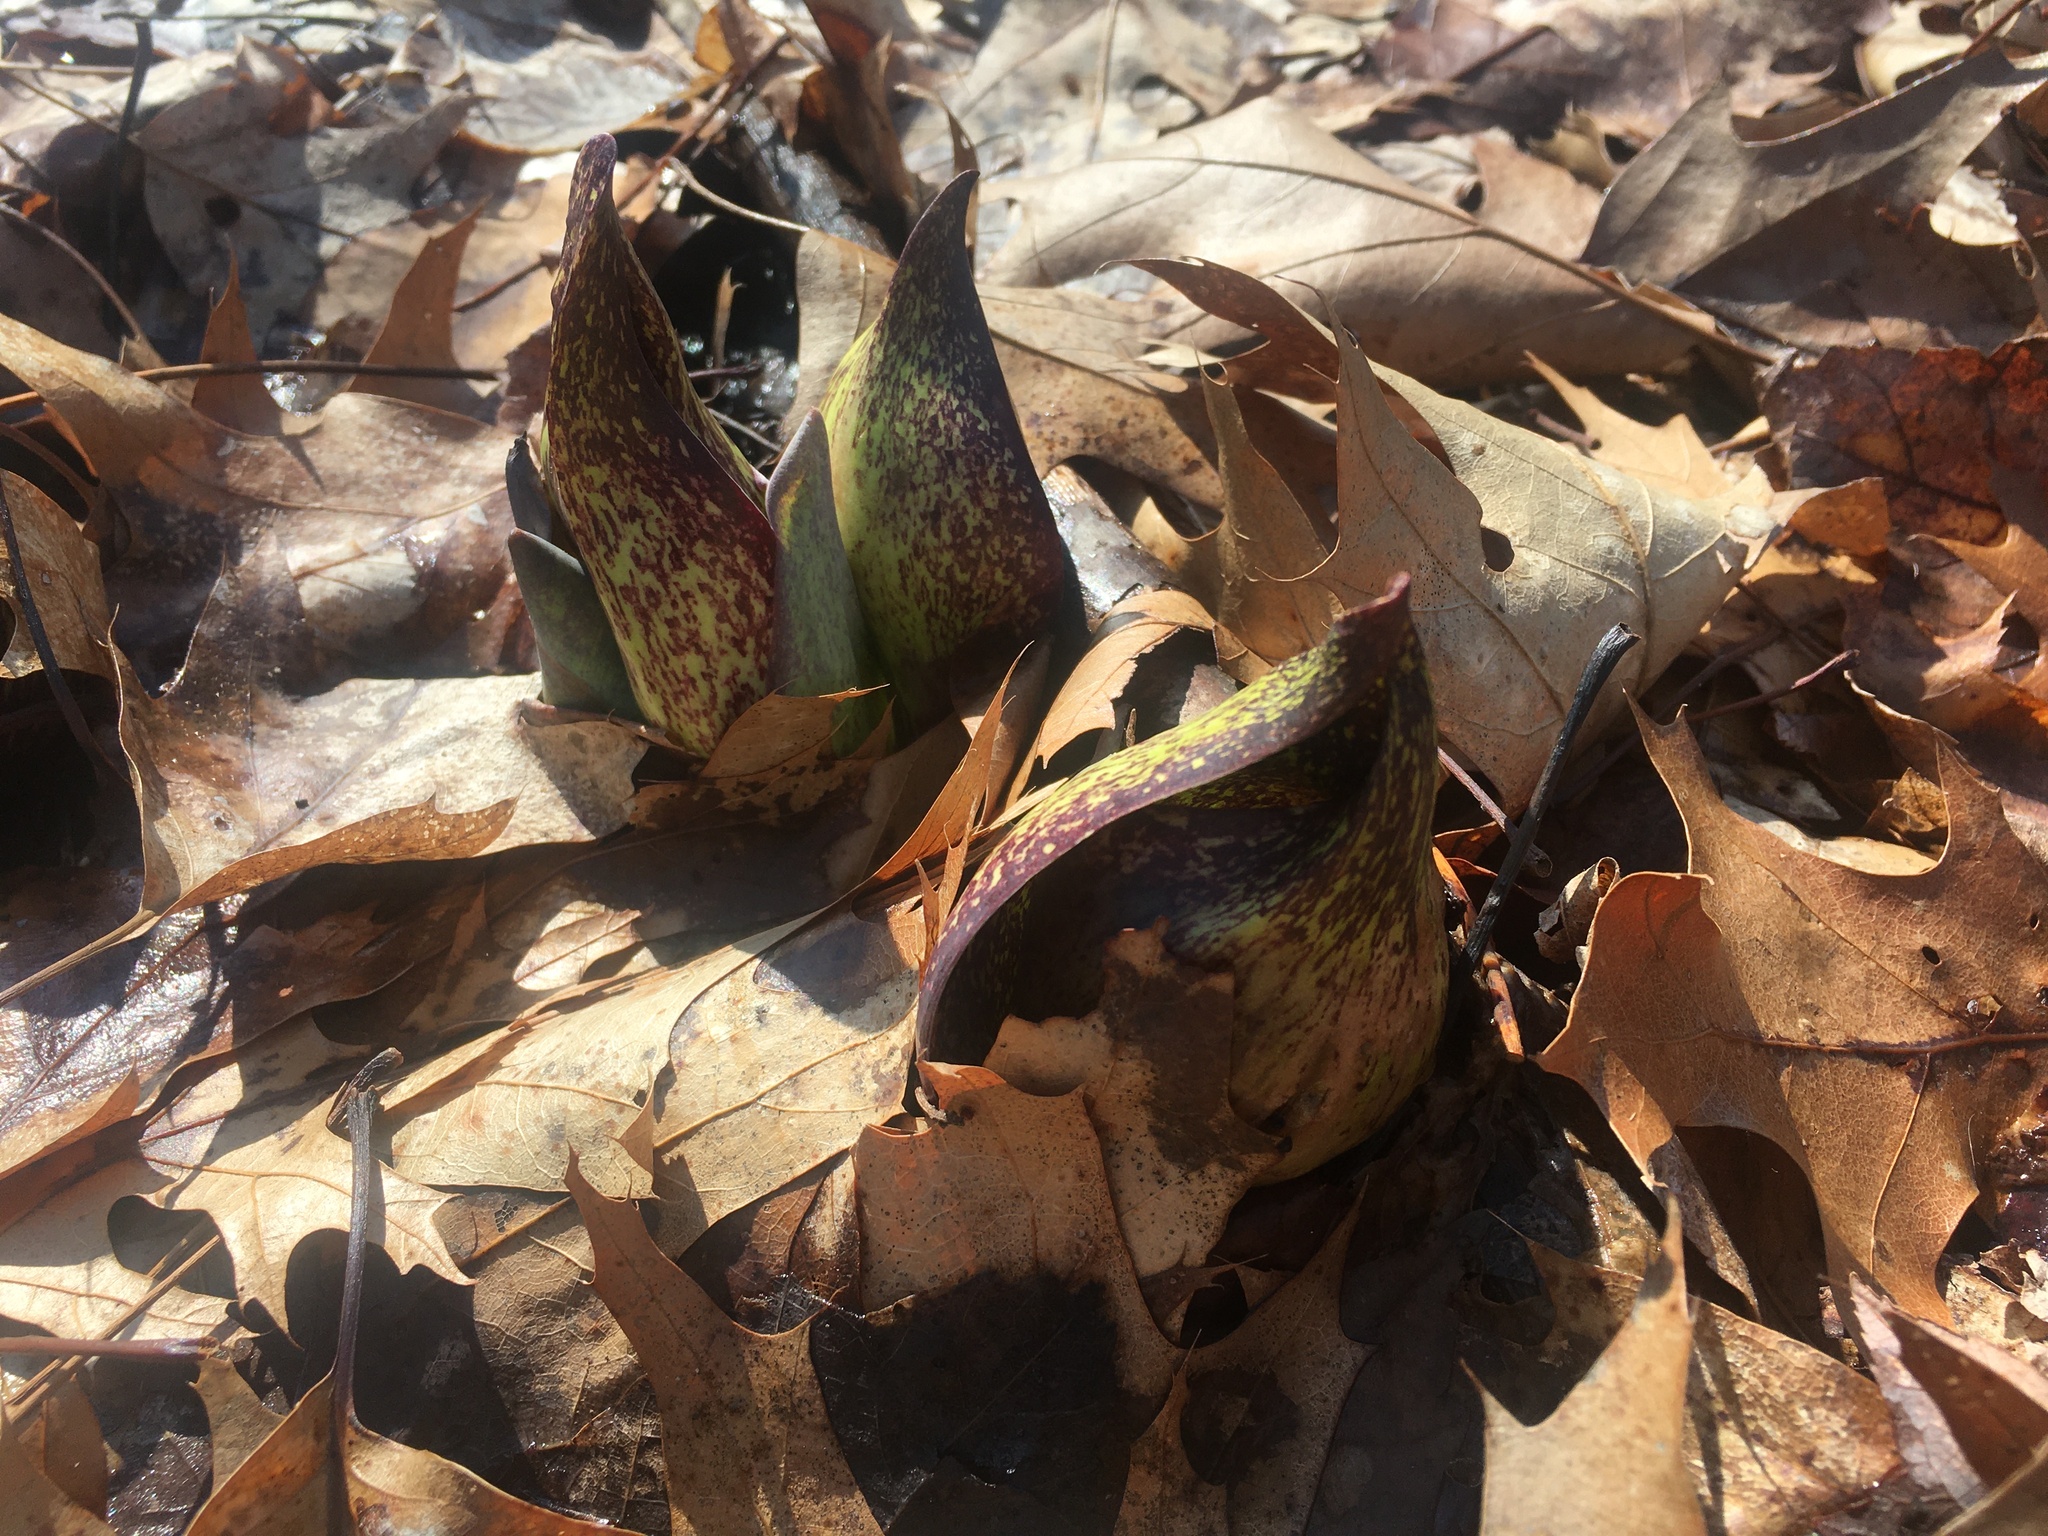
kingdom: Plantae
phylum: Tracheophyta
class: Liliopsida
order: Alismatales
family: Araceae
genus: Symplocarpus
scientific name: Symplocarpus foetidus
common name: Eastern skunk cabbage
